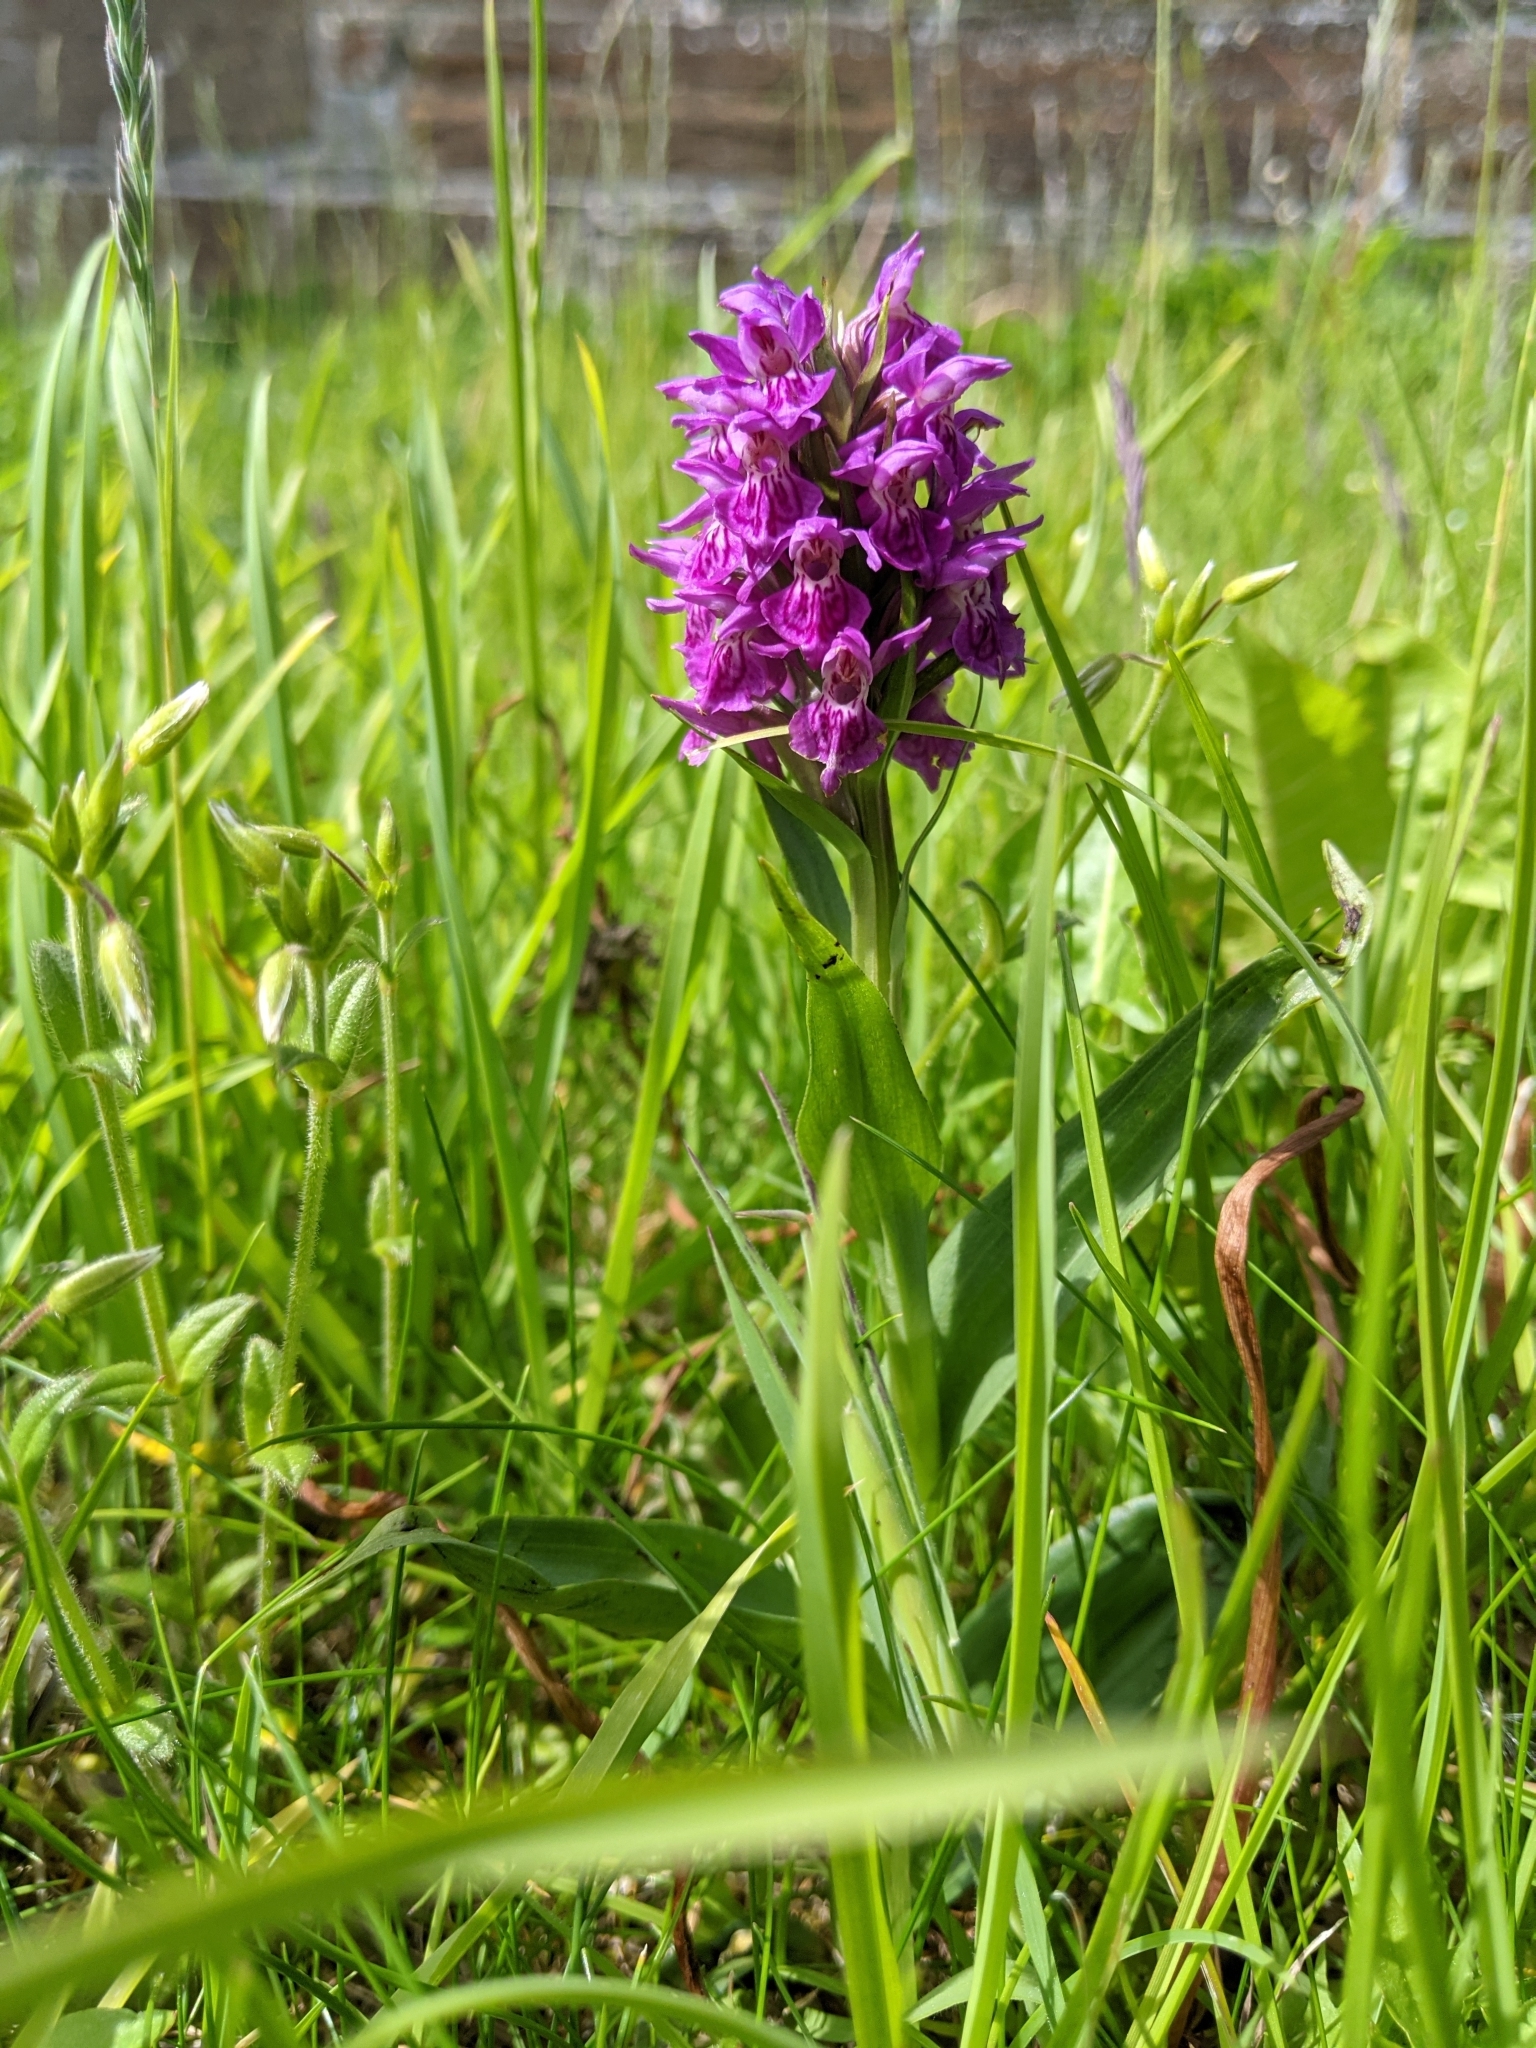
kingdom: Plantae
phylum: Tracheophyta
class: Liliopsida
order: Asparagales
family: Orchidaceae
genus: Dactylorhiza
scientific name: Dactylorhiza majalis
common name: Marsh orchid
